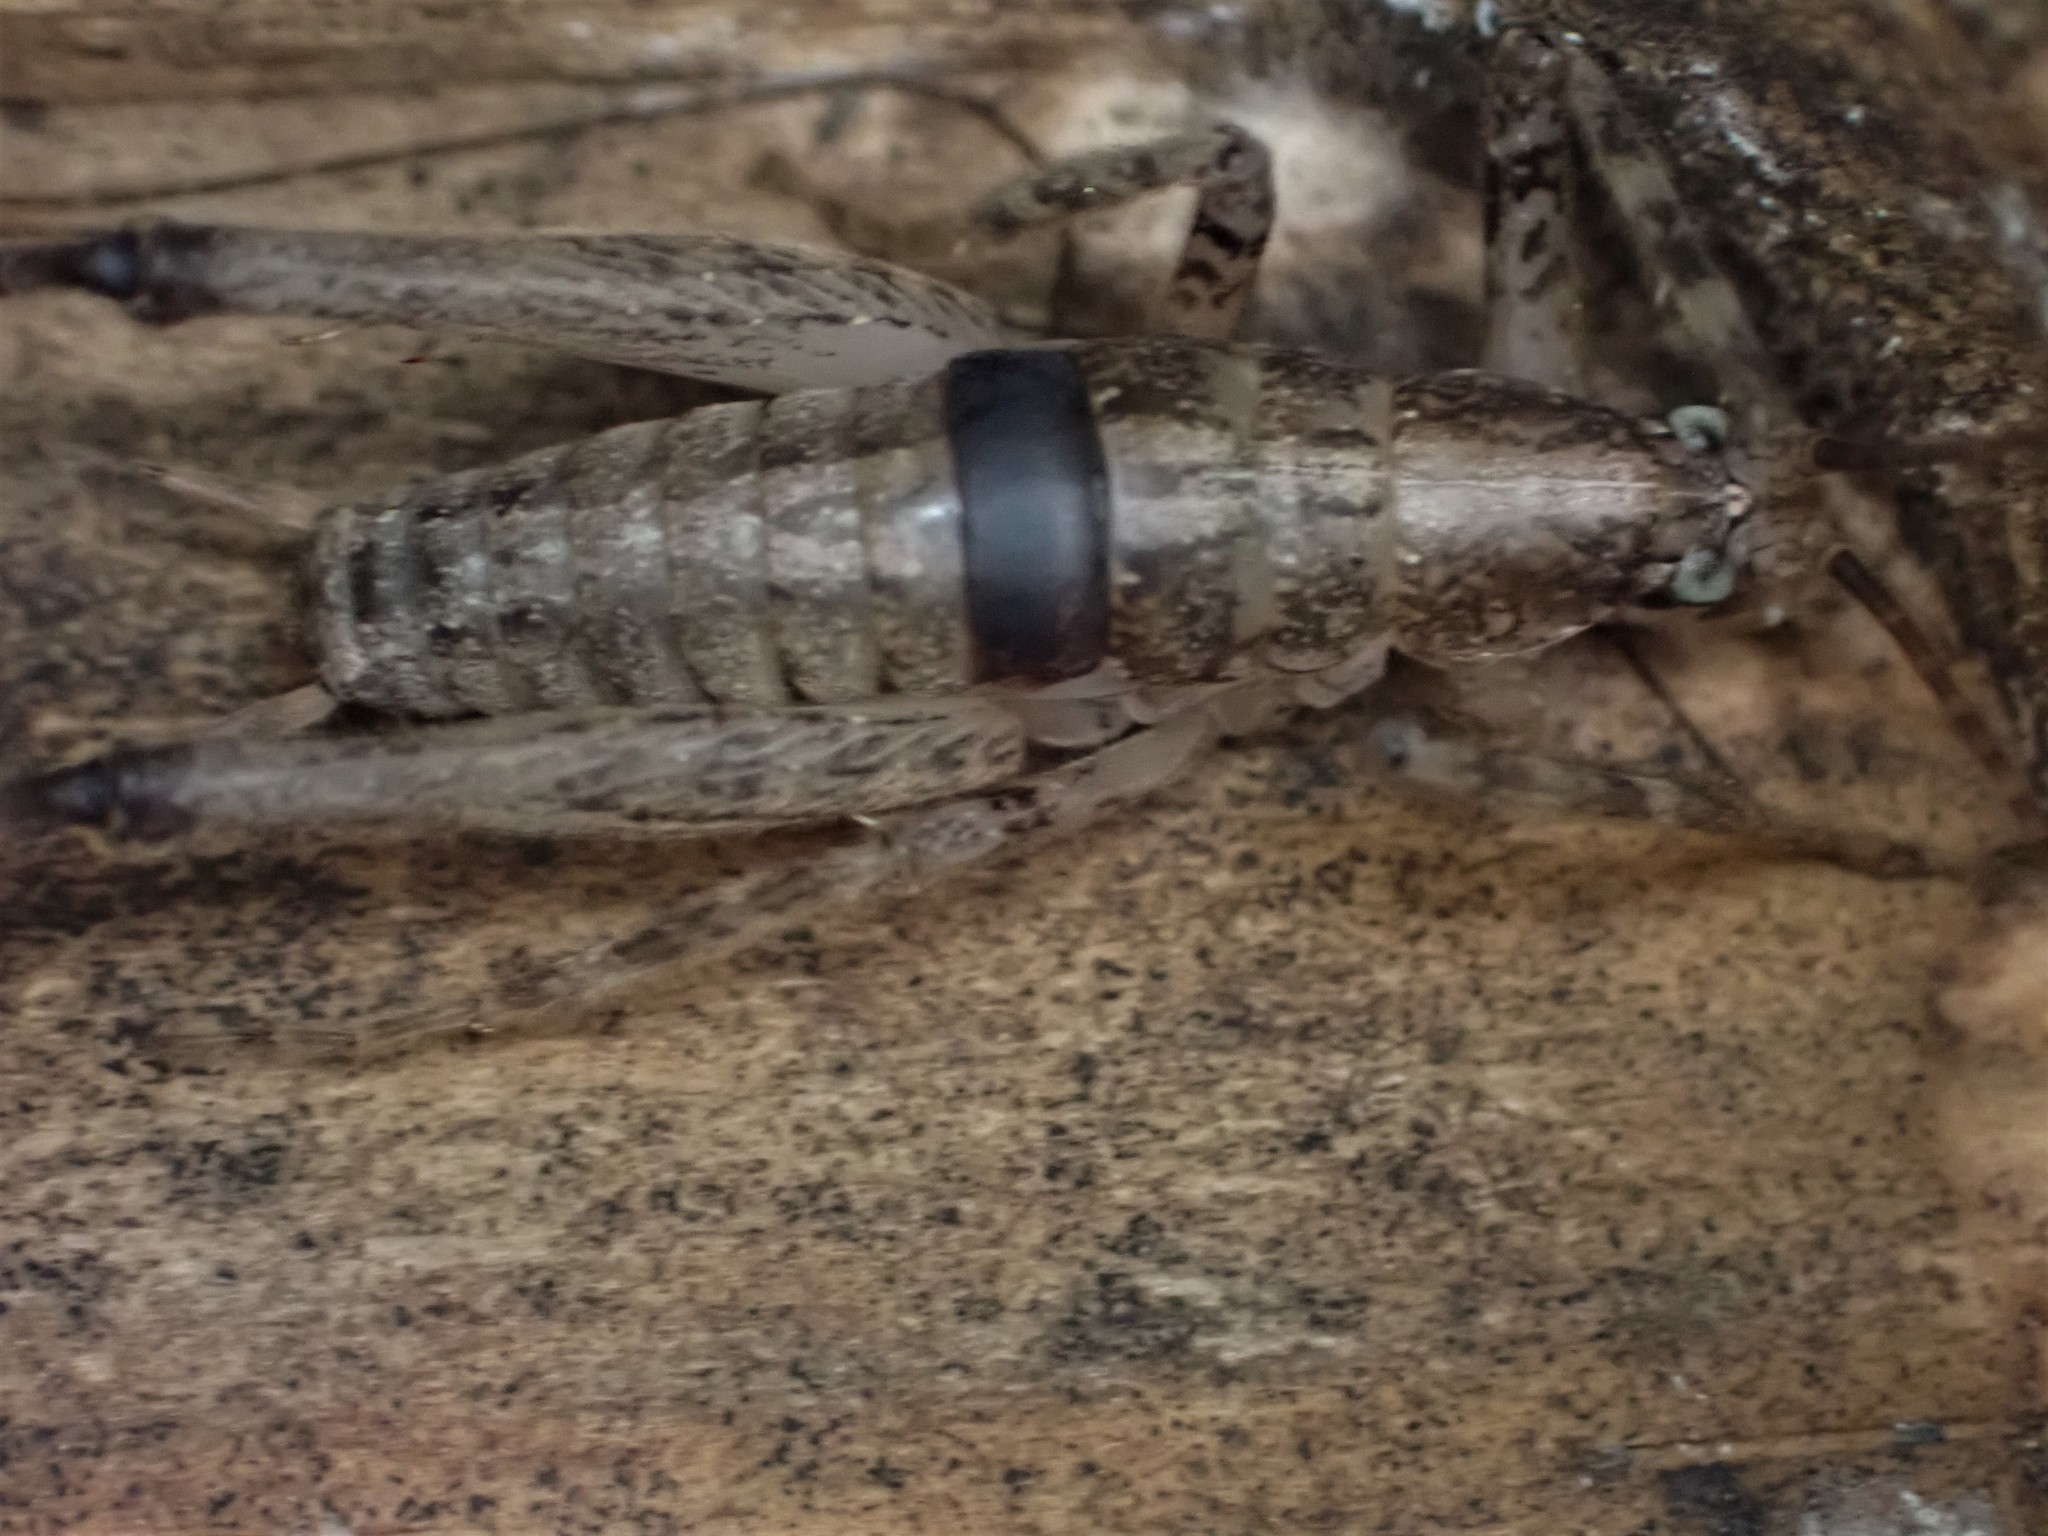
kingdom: Animalia
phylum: Arthropoda
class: Insecta
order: Orthoptera
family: Rhaphidophoridae
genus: Isoplectron
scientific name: Isoplectron armatum
